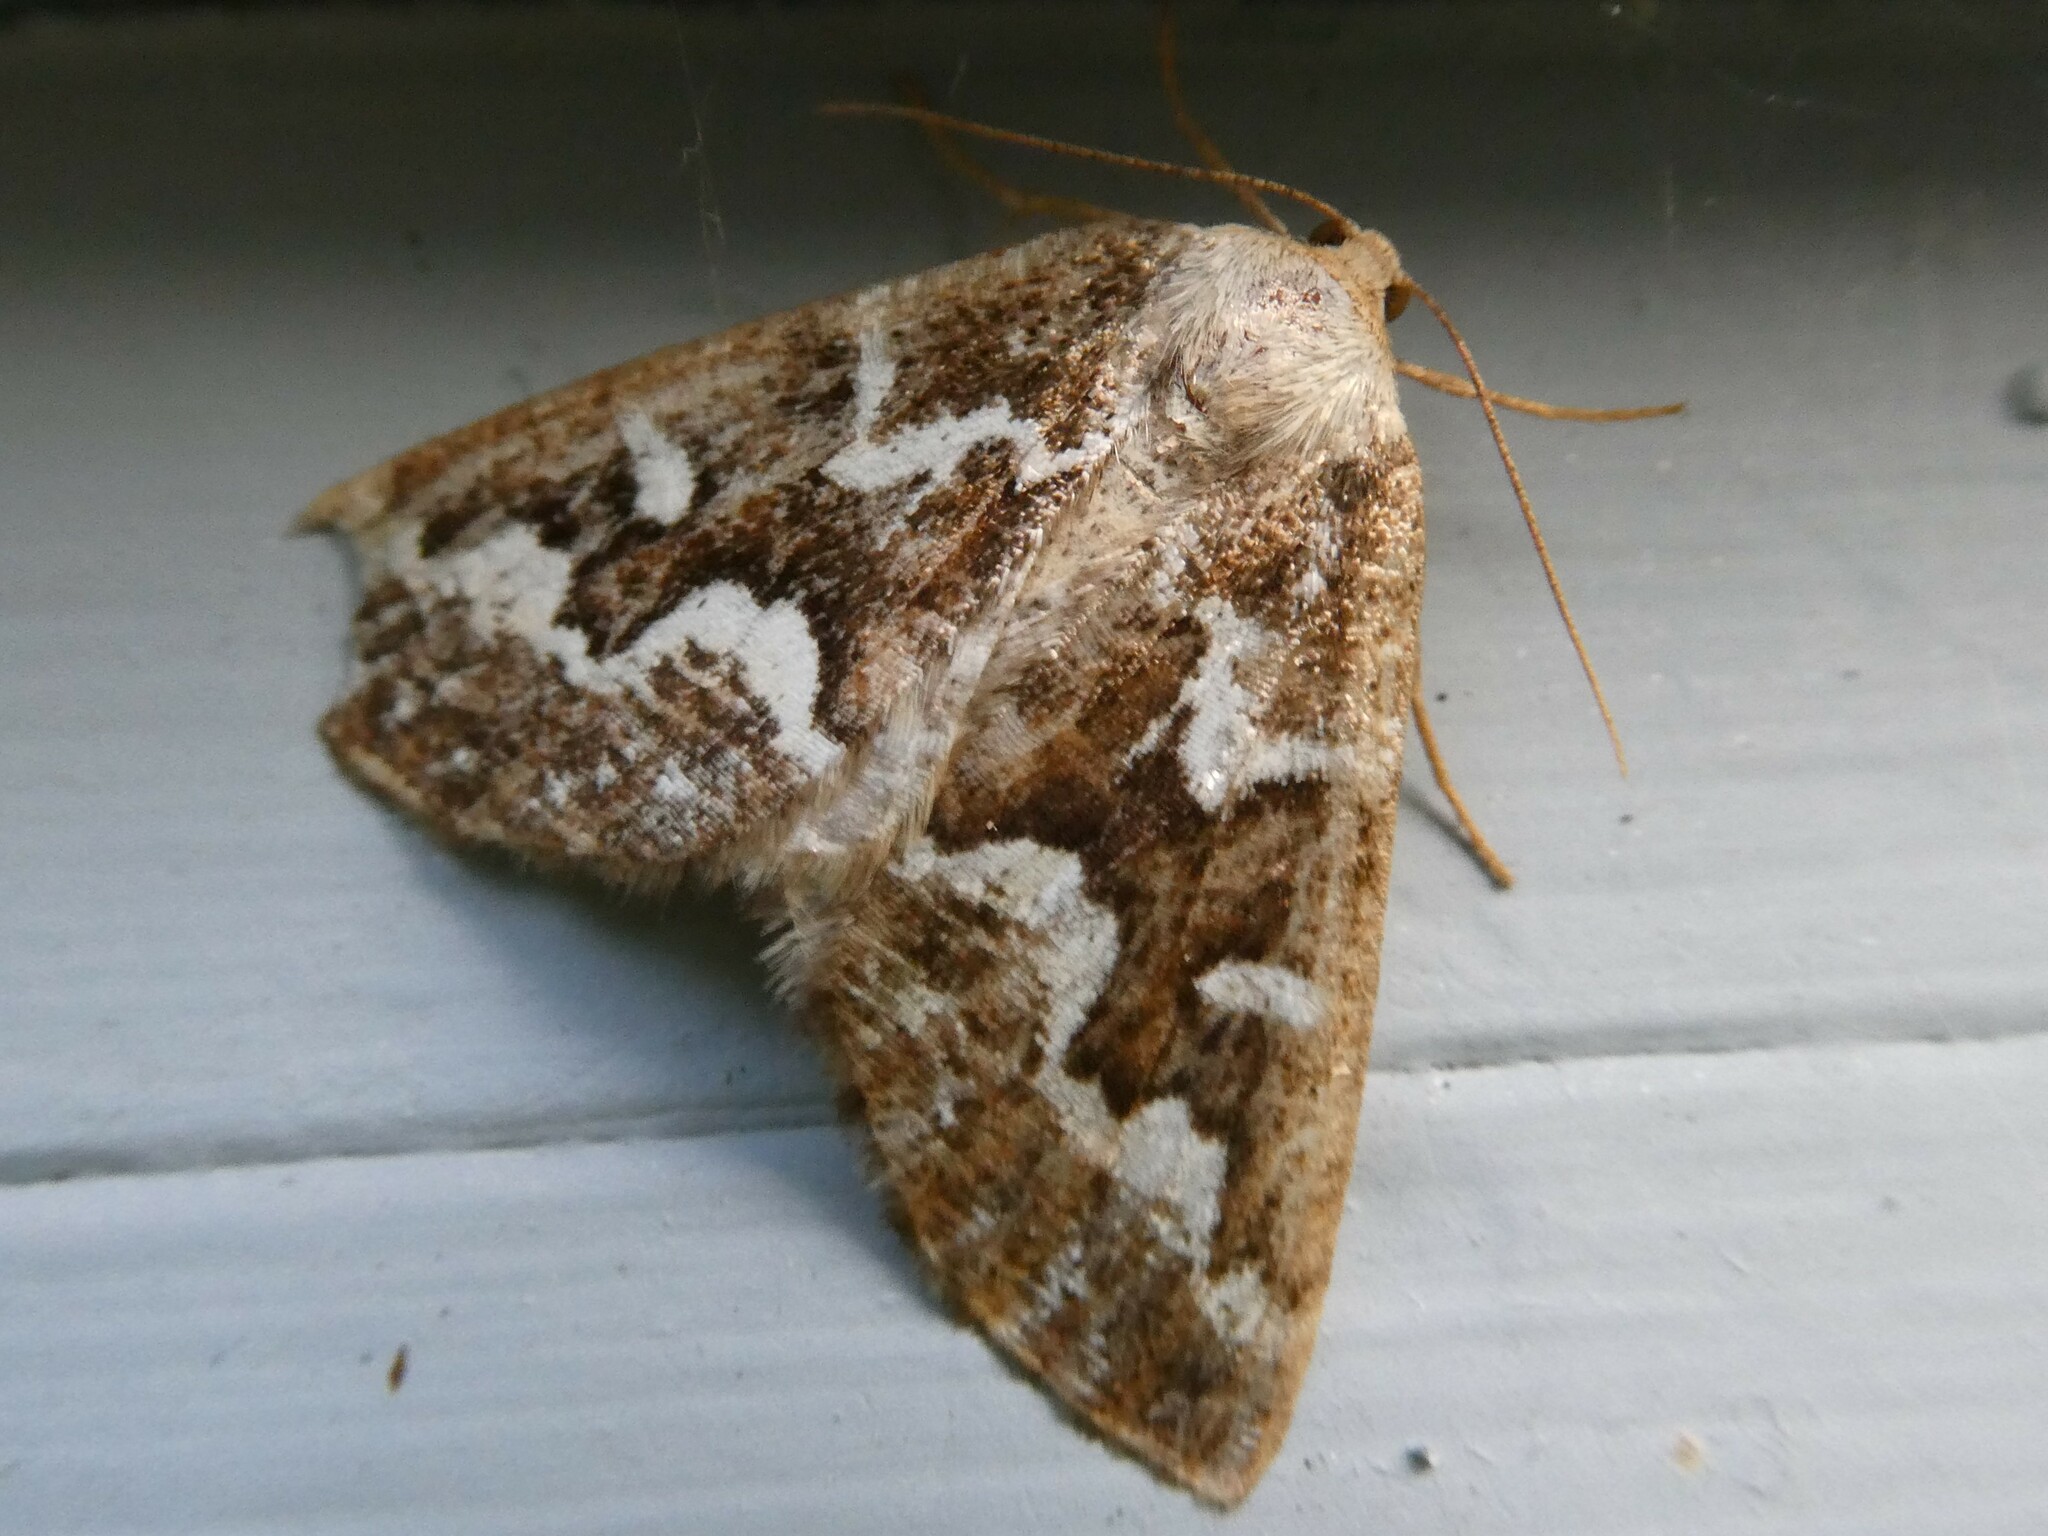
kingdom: Animalia
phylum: Arthropoda
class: Insecta
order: Lepidoptera
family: Geometridae
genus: Caripeta
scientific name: Caripeta divisata
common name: Gray spruce looper
